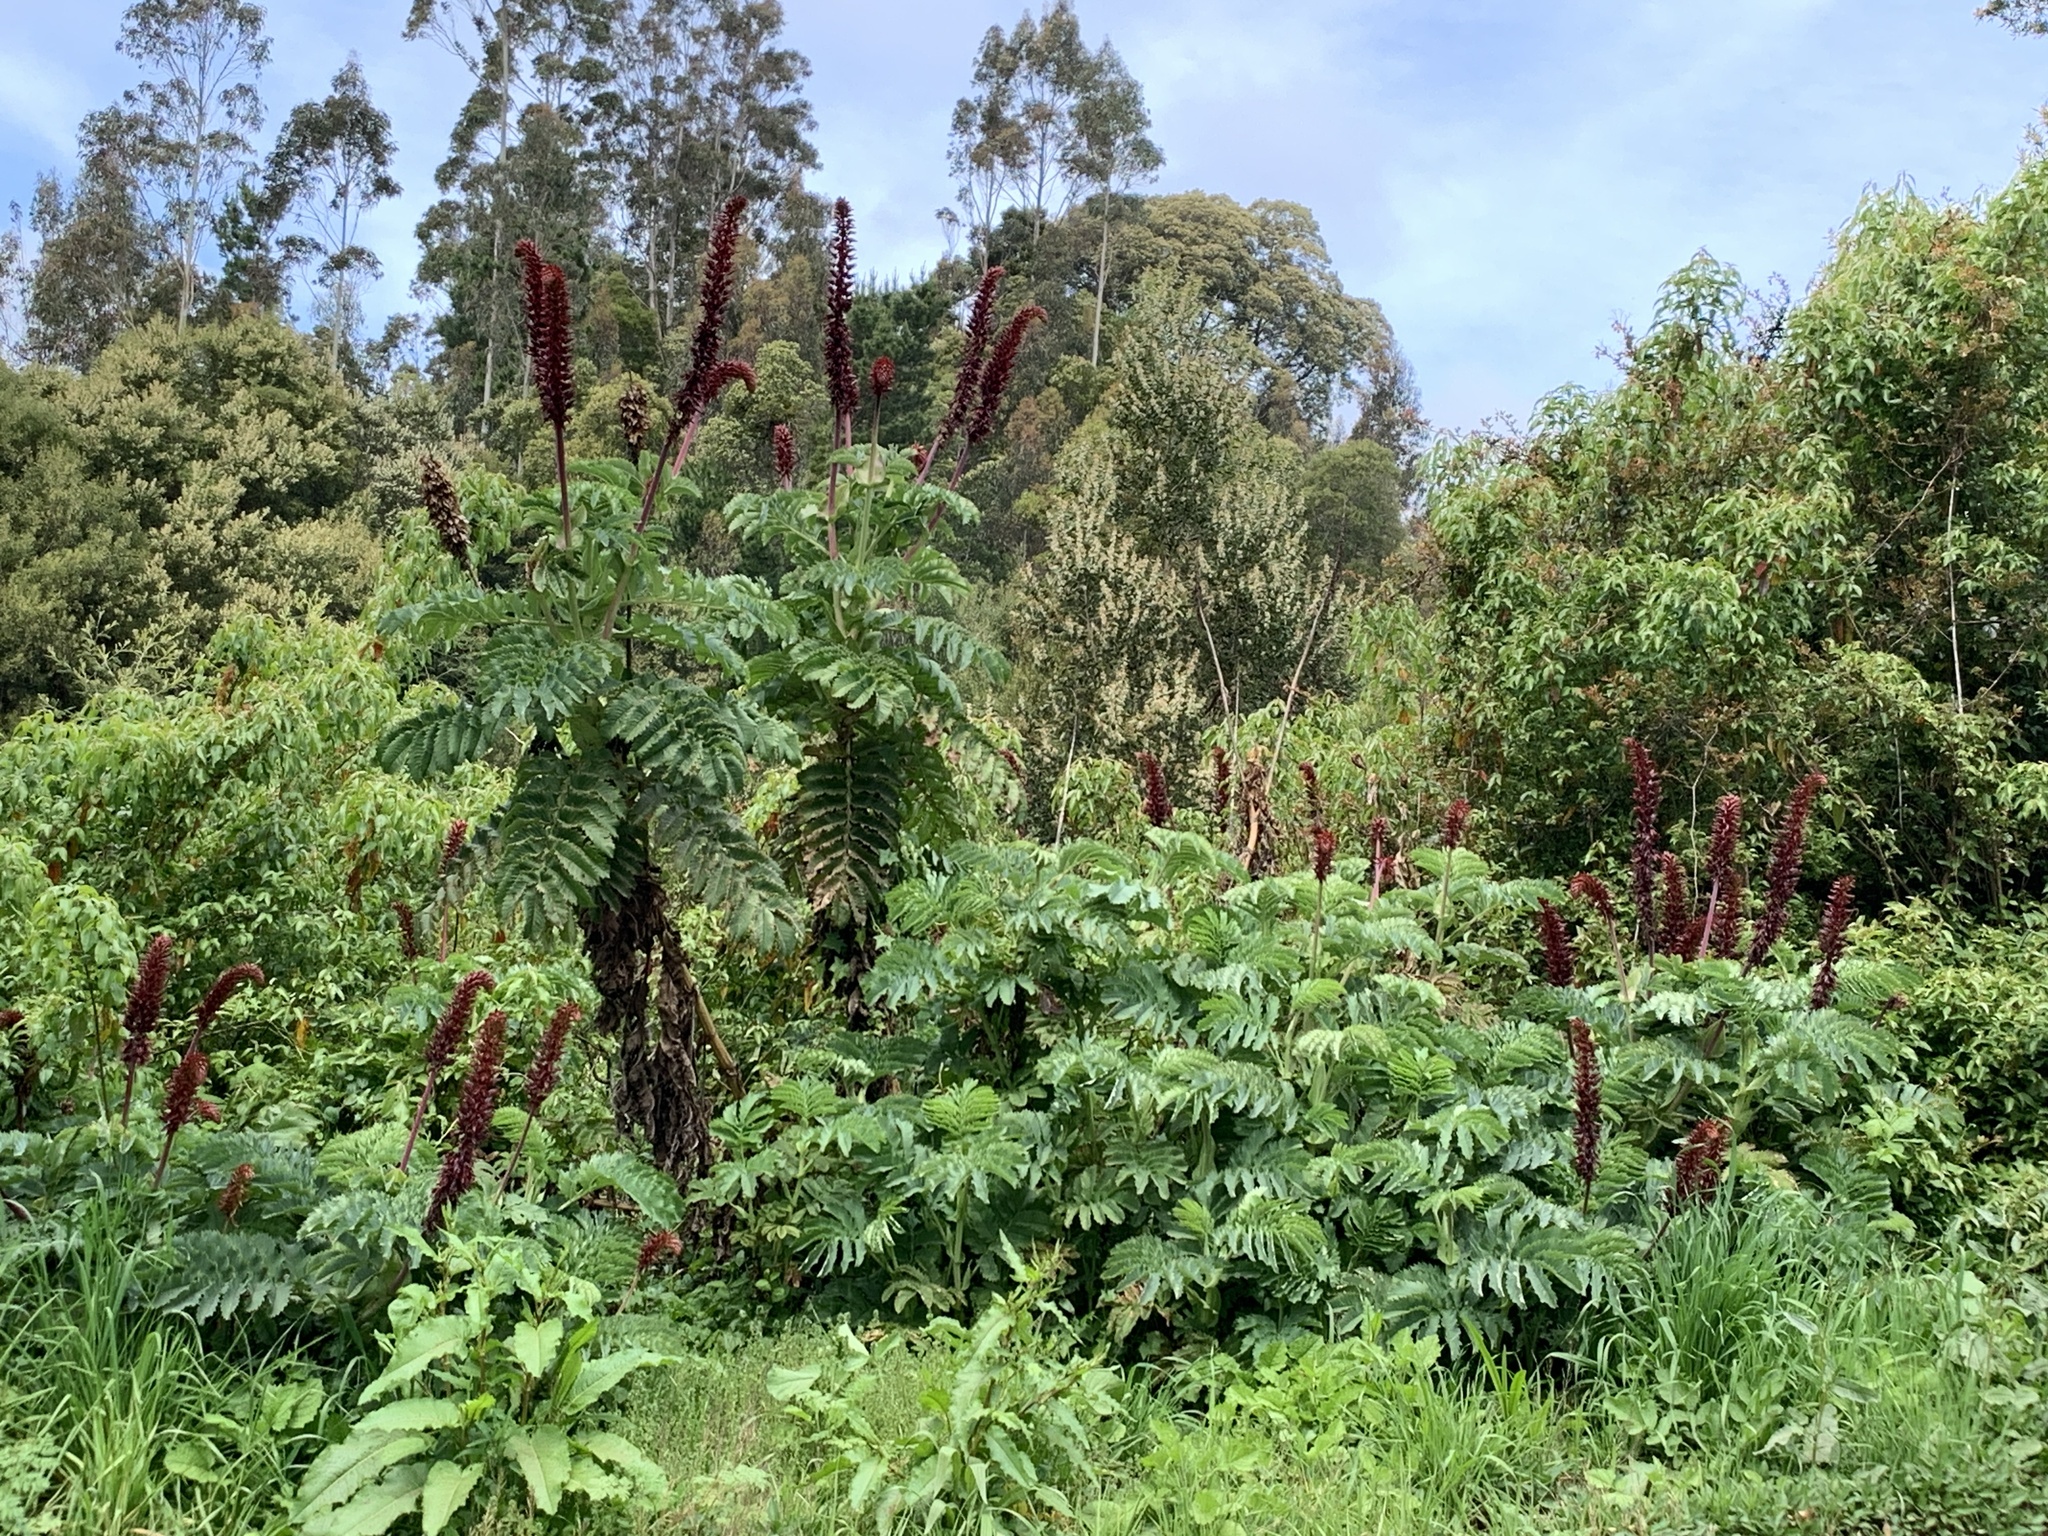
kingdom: Plantae
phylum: Tracheophyta
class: Magnoliopsida
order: Geraniales
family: Melianthaceae
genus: Melianthus
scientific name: Melianthus major
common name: Honey-flower
